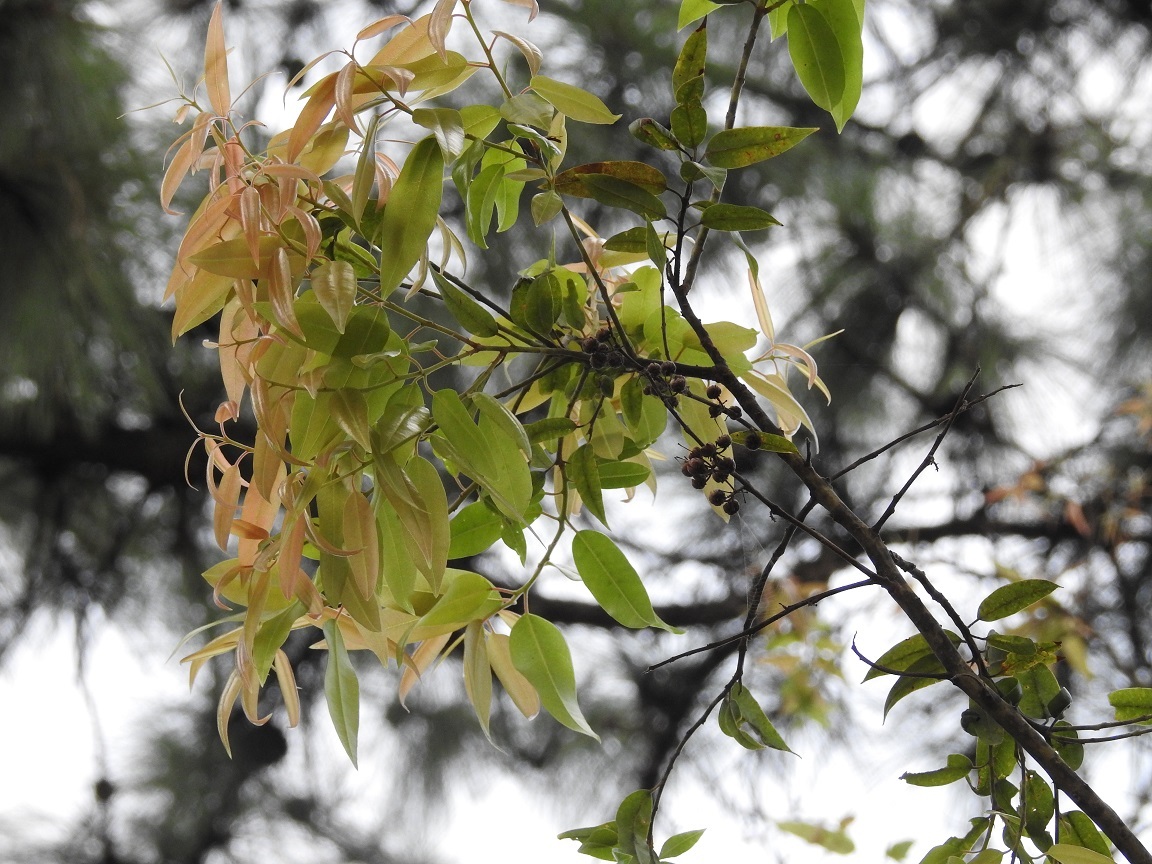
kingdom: Plantae
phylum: Tracheophyta
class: Magnoliopsida
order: Ericales
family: Ericaceae
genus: Agarista
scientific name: Agarista mexicana
